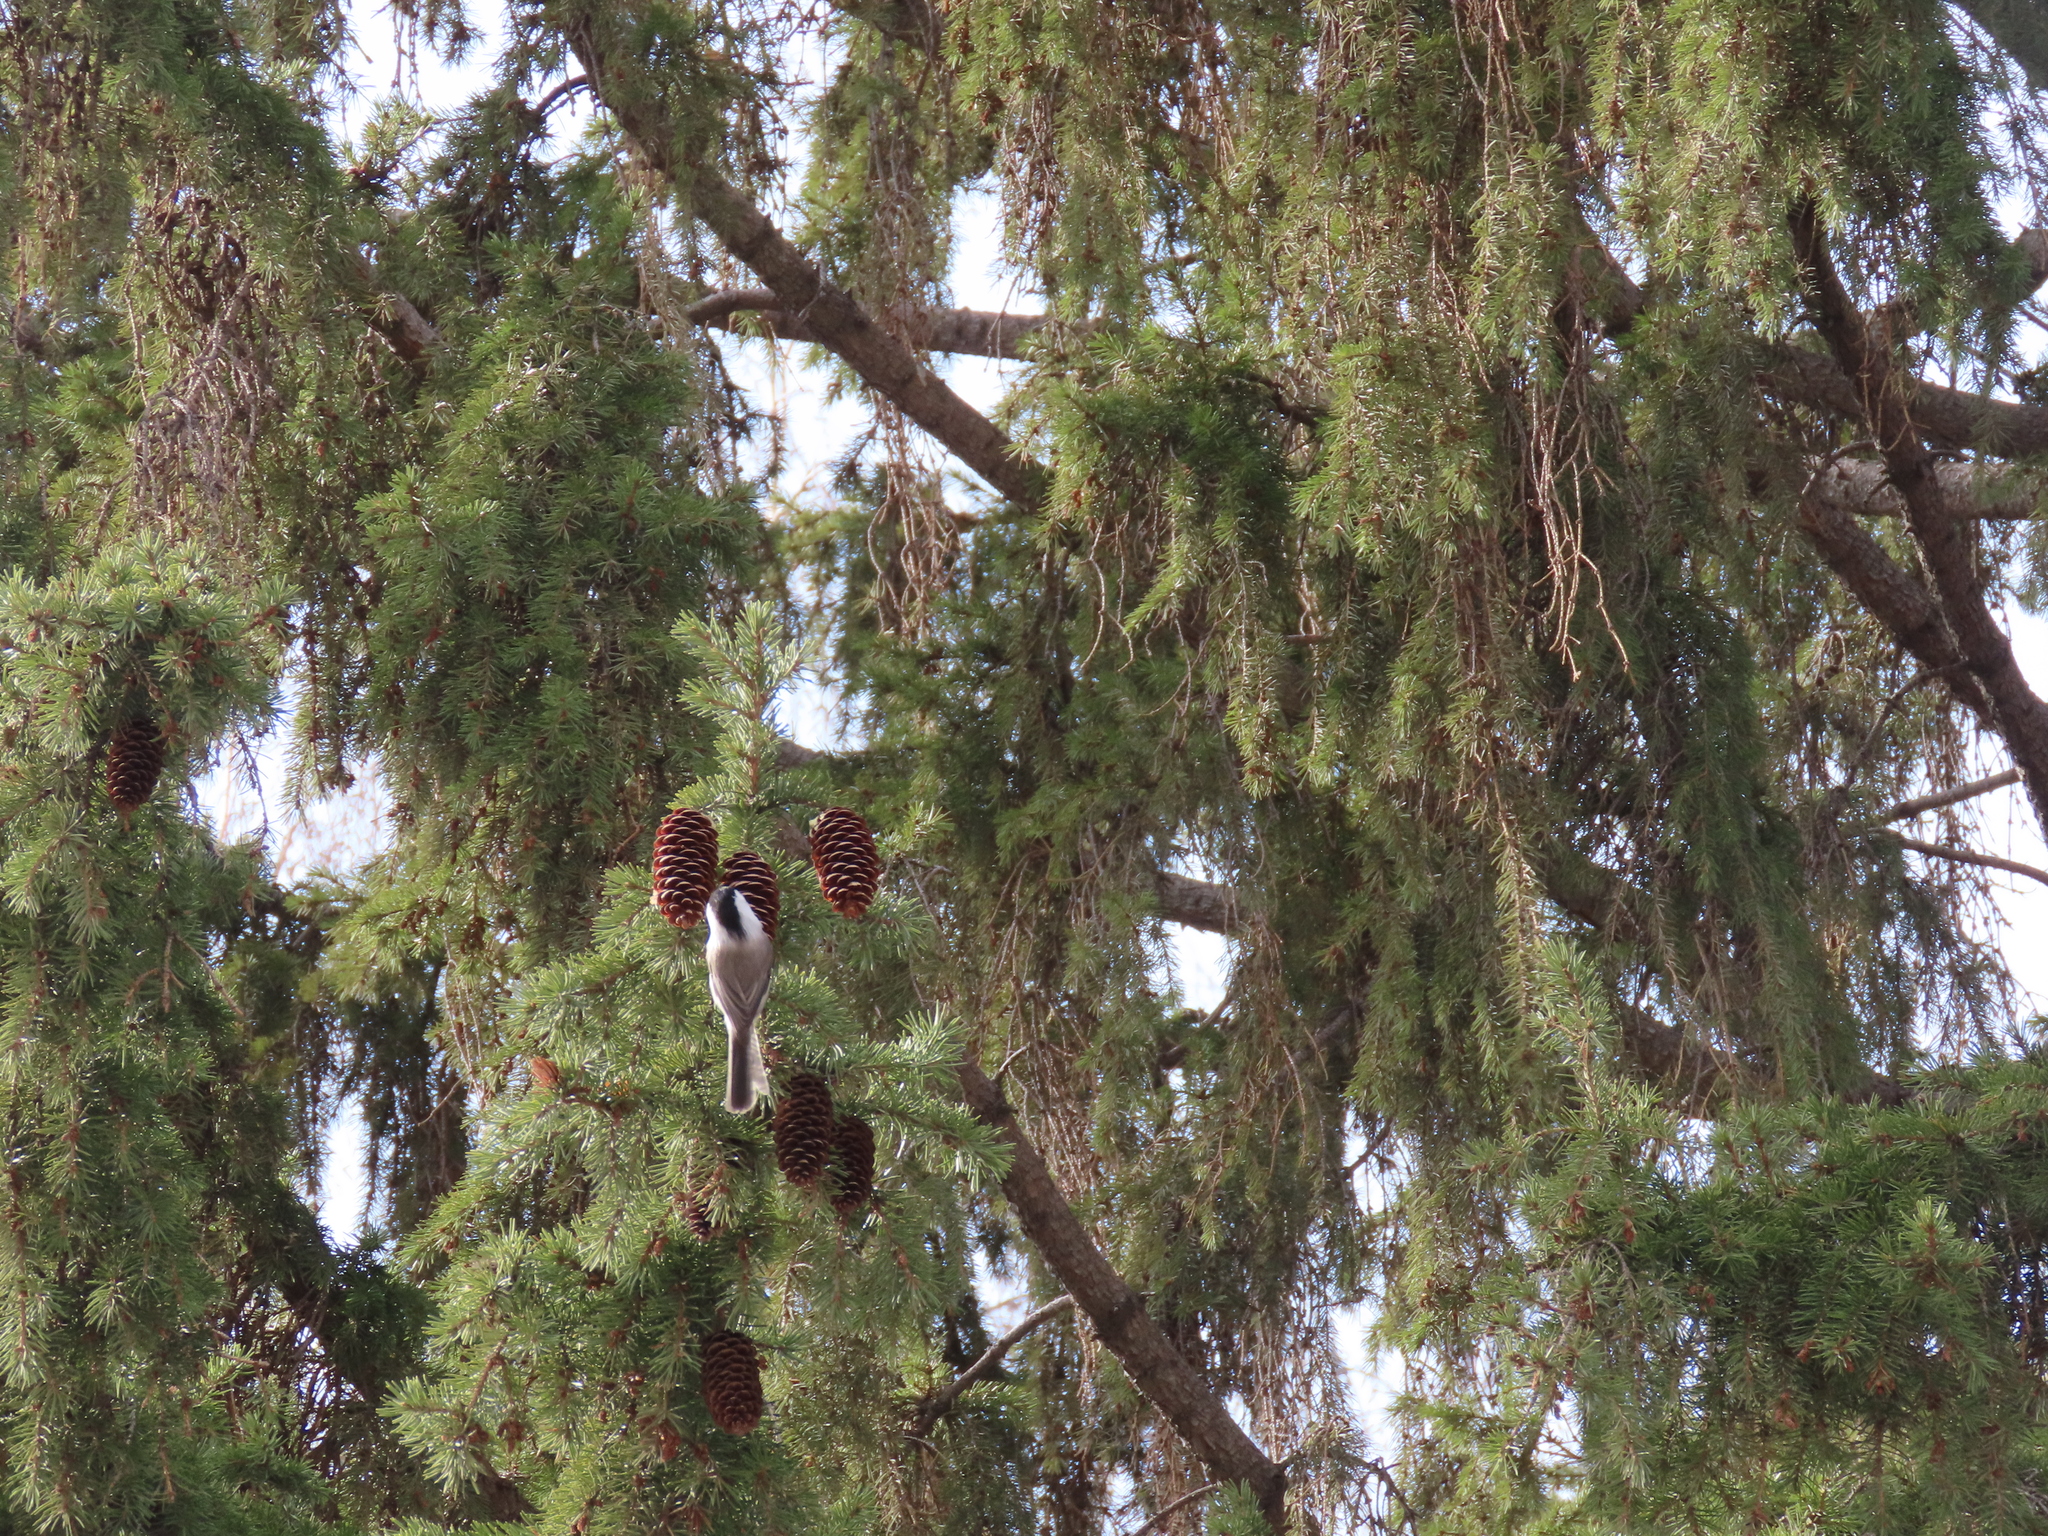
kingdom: Animalia
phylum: Chordata
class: Aves
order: Passeriformes
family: Paridae
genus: Poecile
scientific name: Poecile montanus
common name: Willow tit
